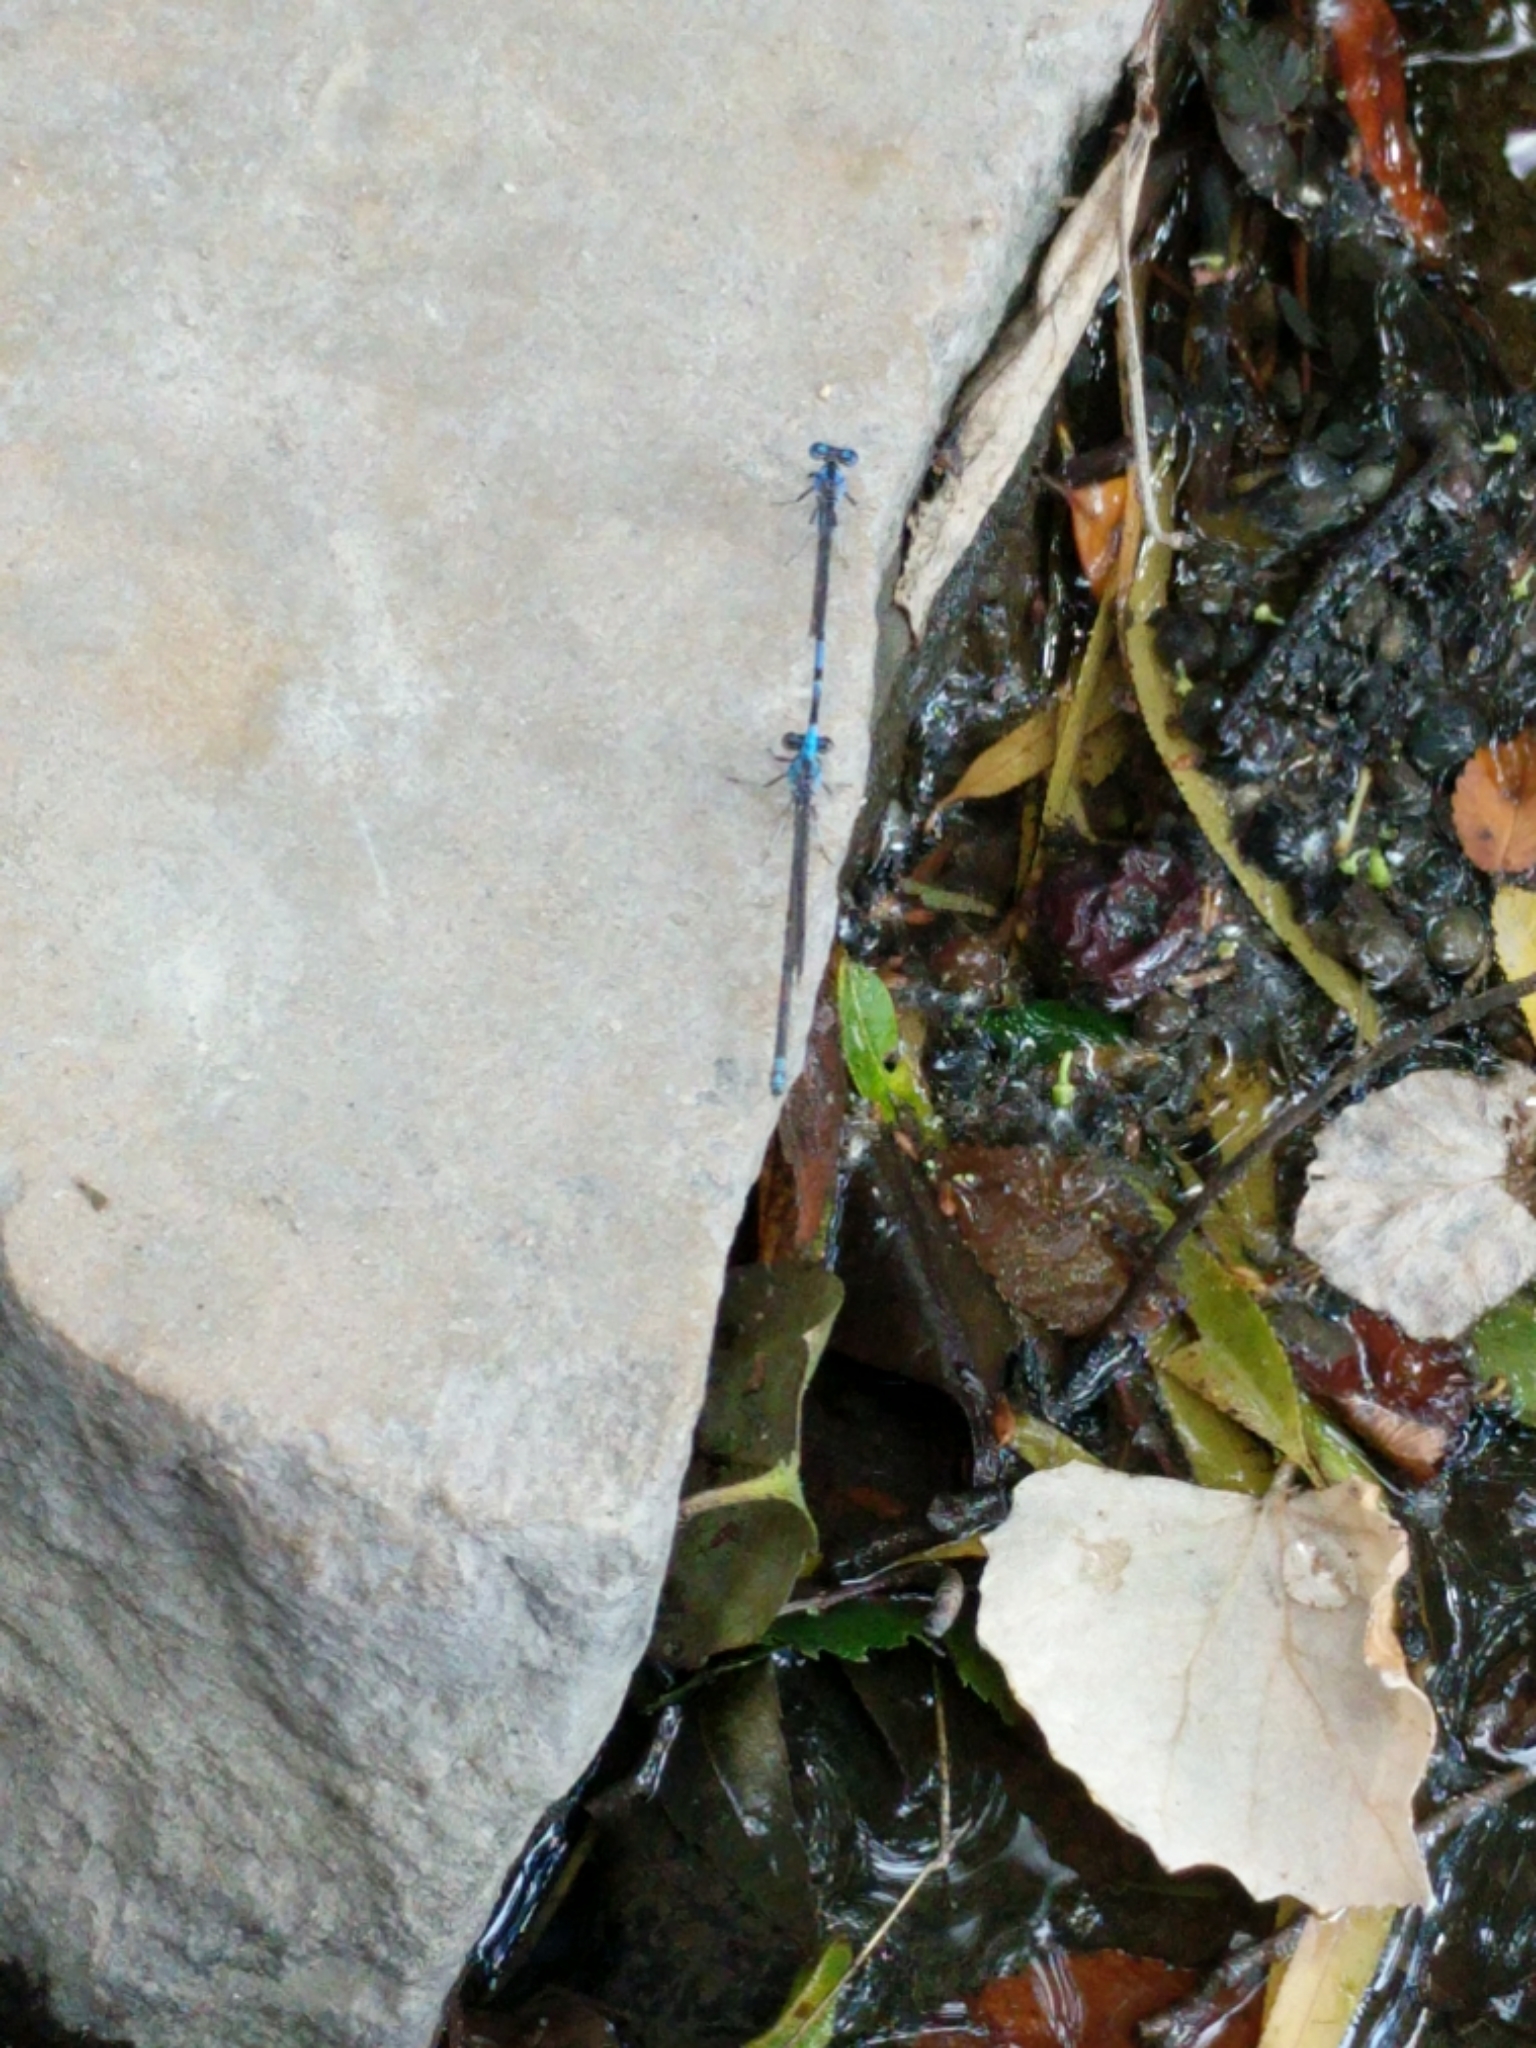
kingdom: Animalia
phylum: Arthropoda
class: Insecta
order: Odonata
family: Coenagrionidae
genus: Argia
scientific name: Argia funebris
